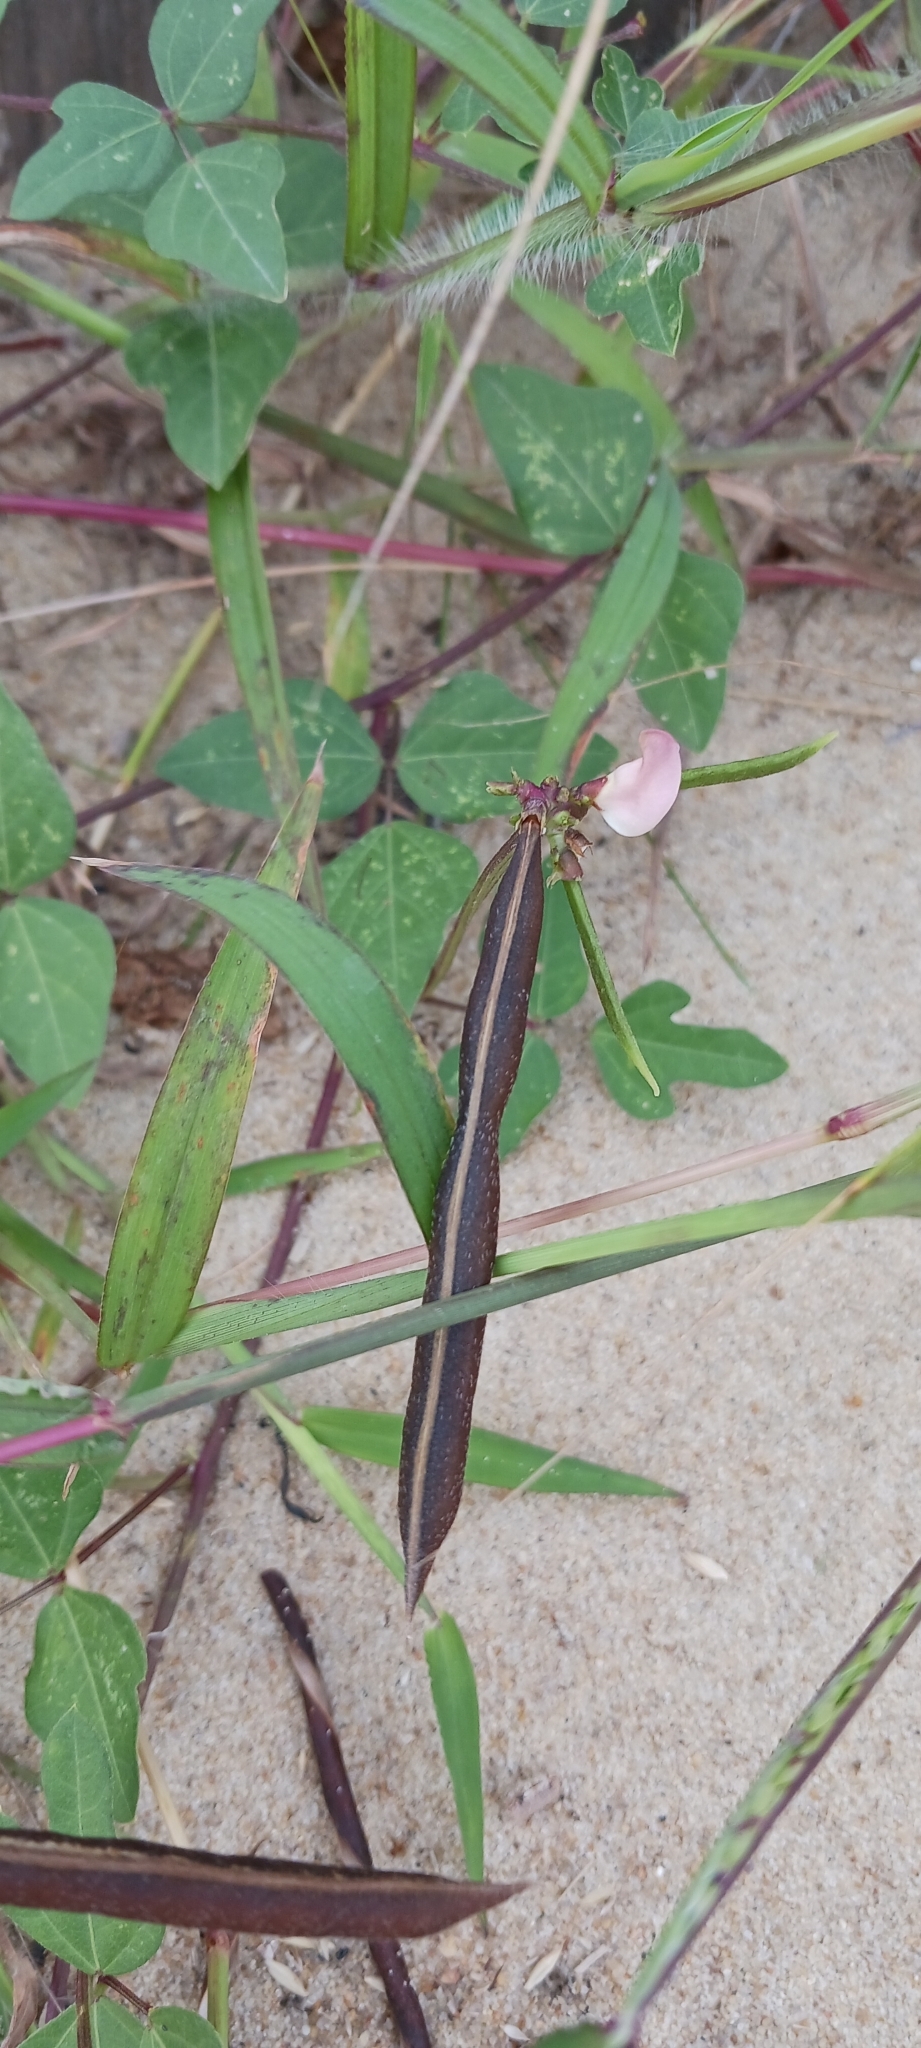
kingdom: Plantae
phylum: Tracheophyta
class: Magnoliopsida
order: Fabales
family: Fabaceae
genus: Strophostyles
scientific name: Strophostyles helvola
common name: Trailing wild bean
